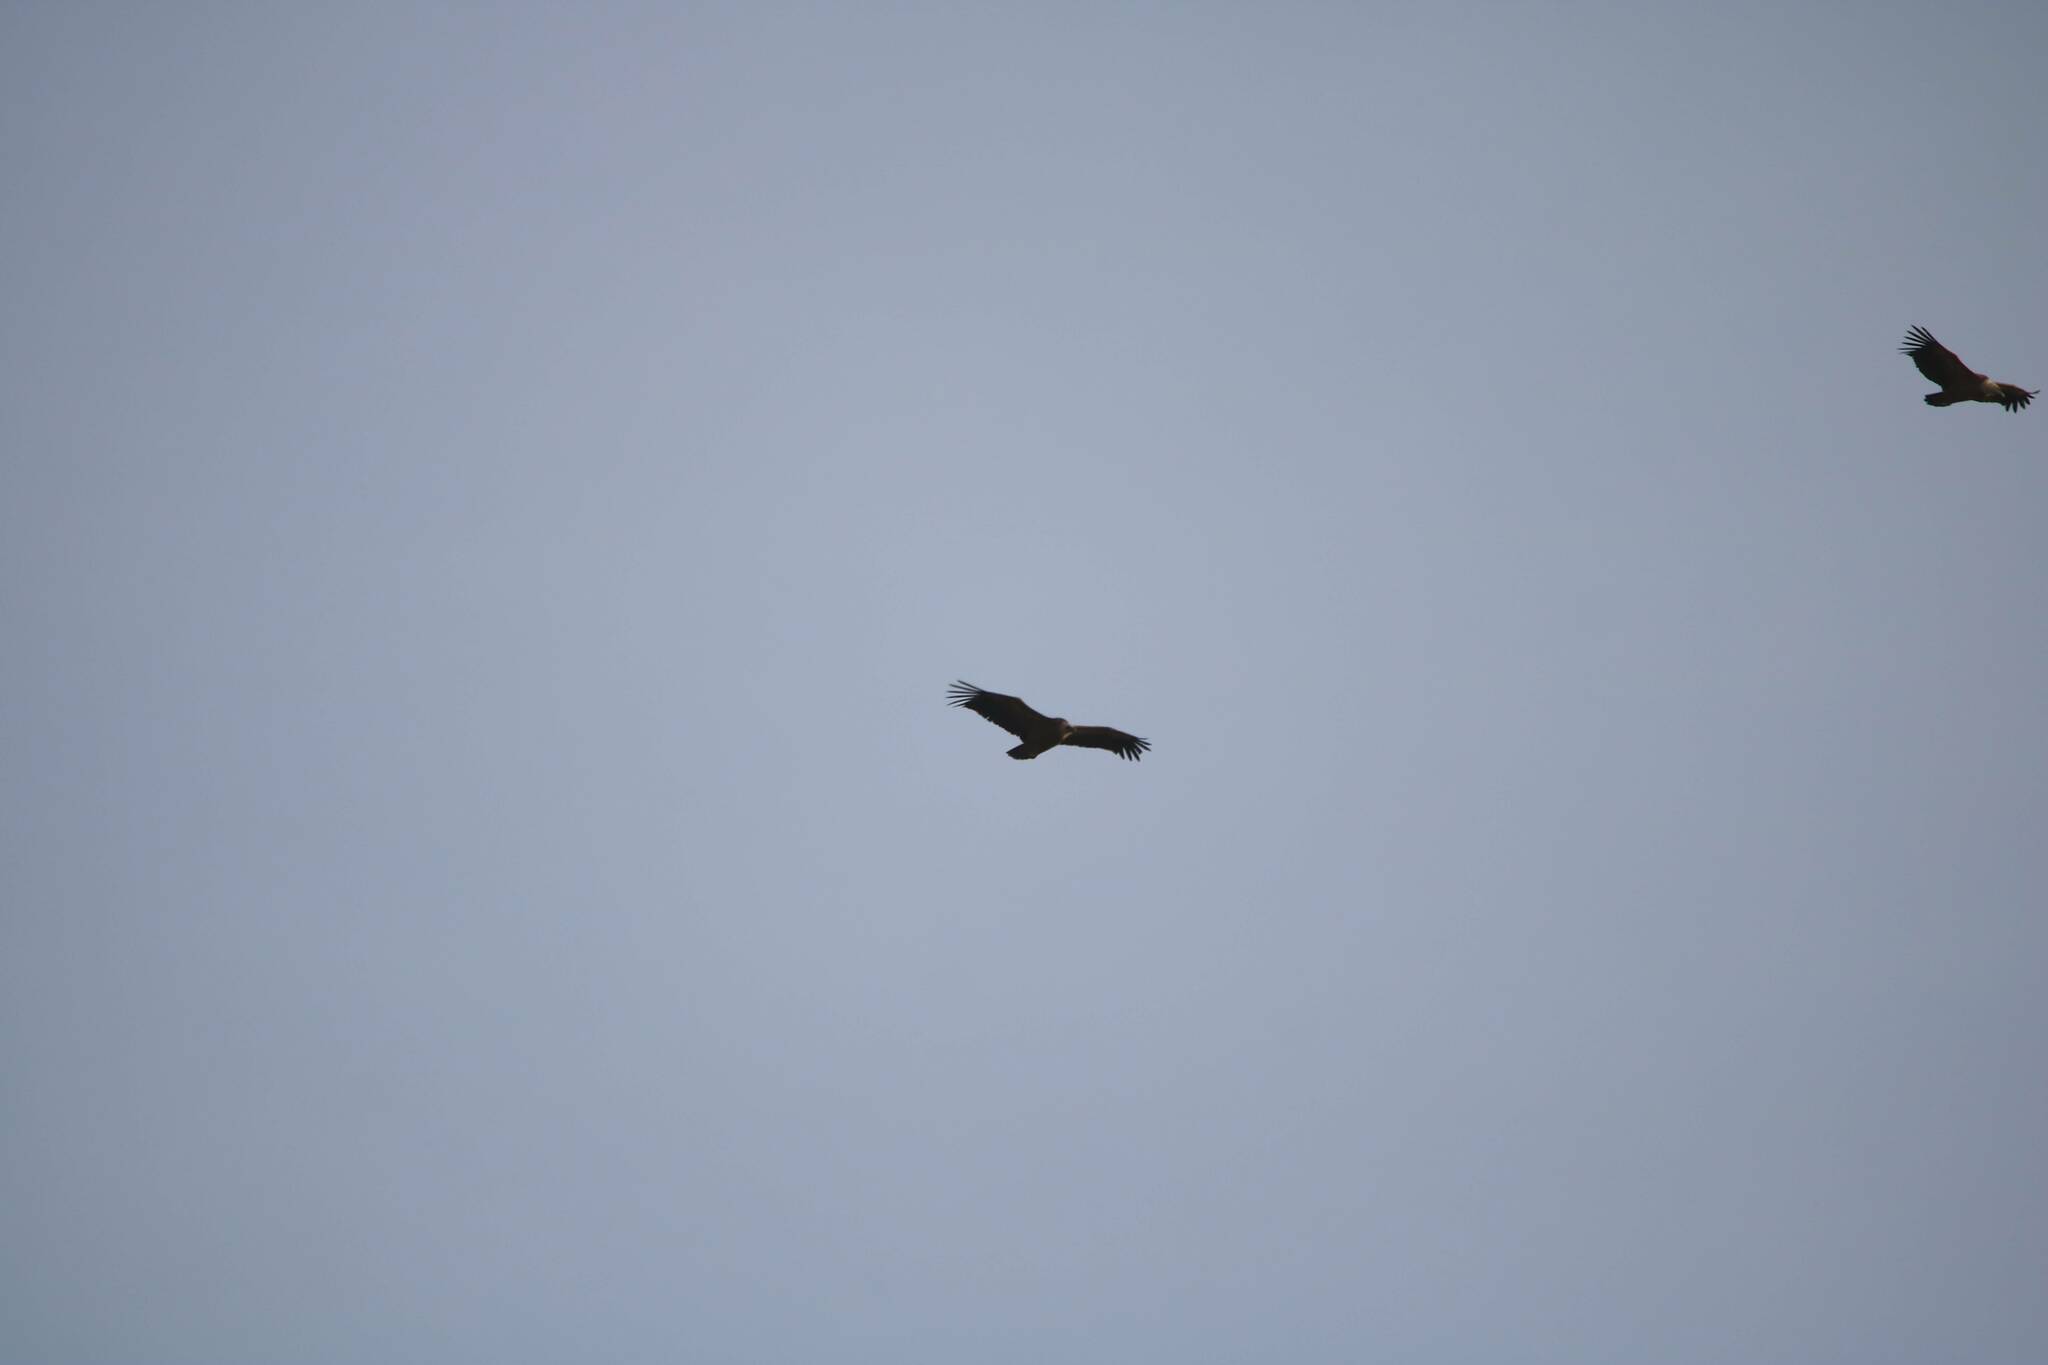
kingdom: Animalia
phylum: Chordata
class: Aves
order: Accipitriformes
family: Accipitridae
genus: Gyps
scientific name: Gyps fulvus
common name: Griffon vulture
